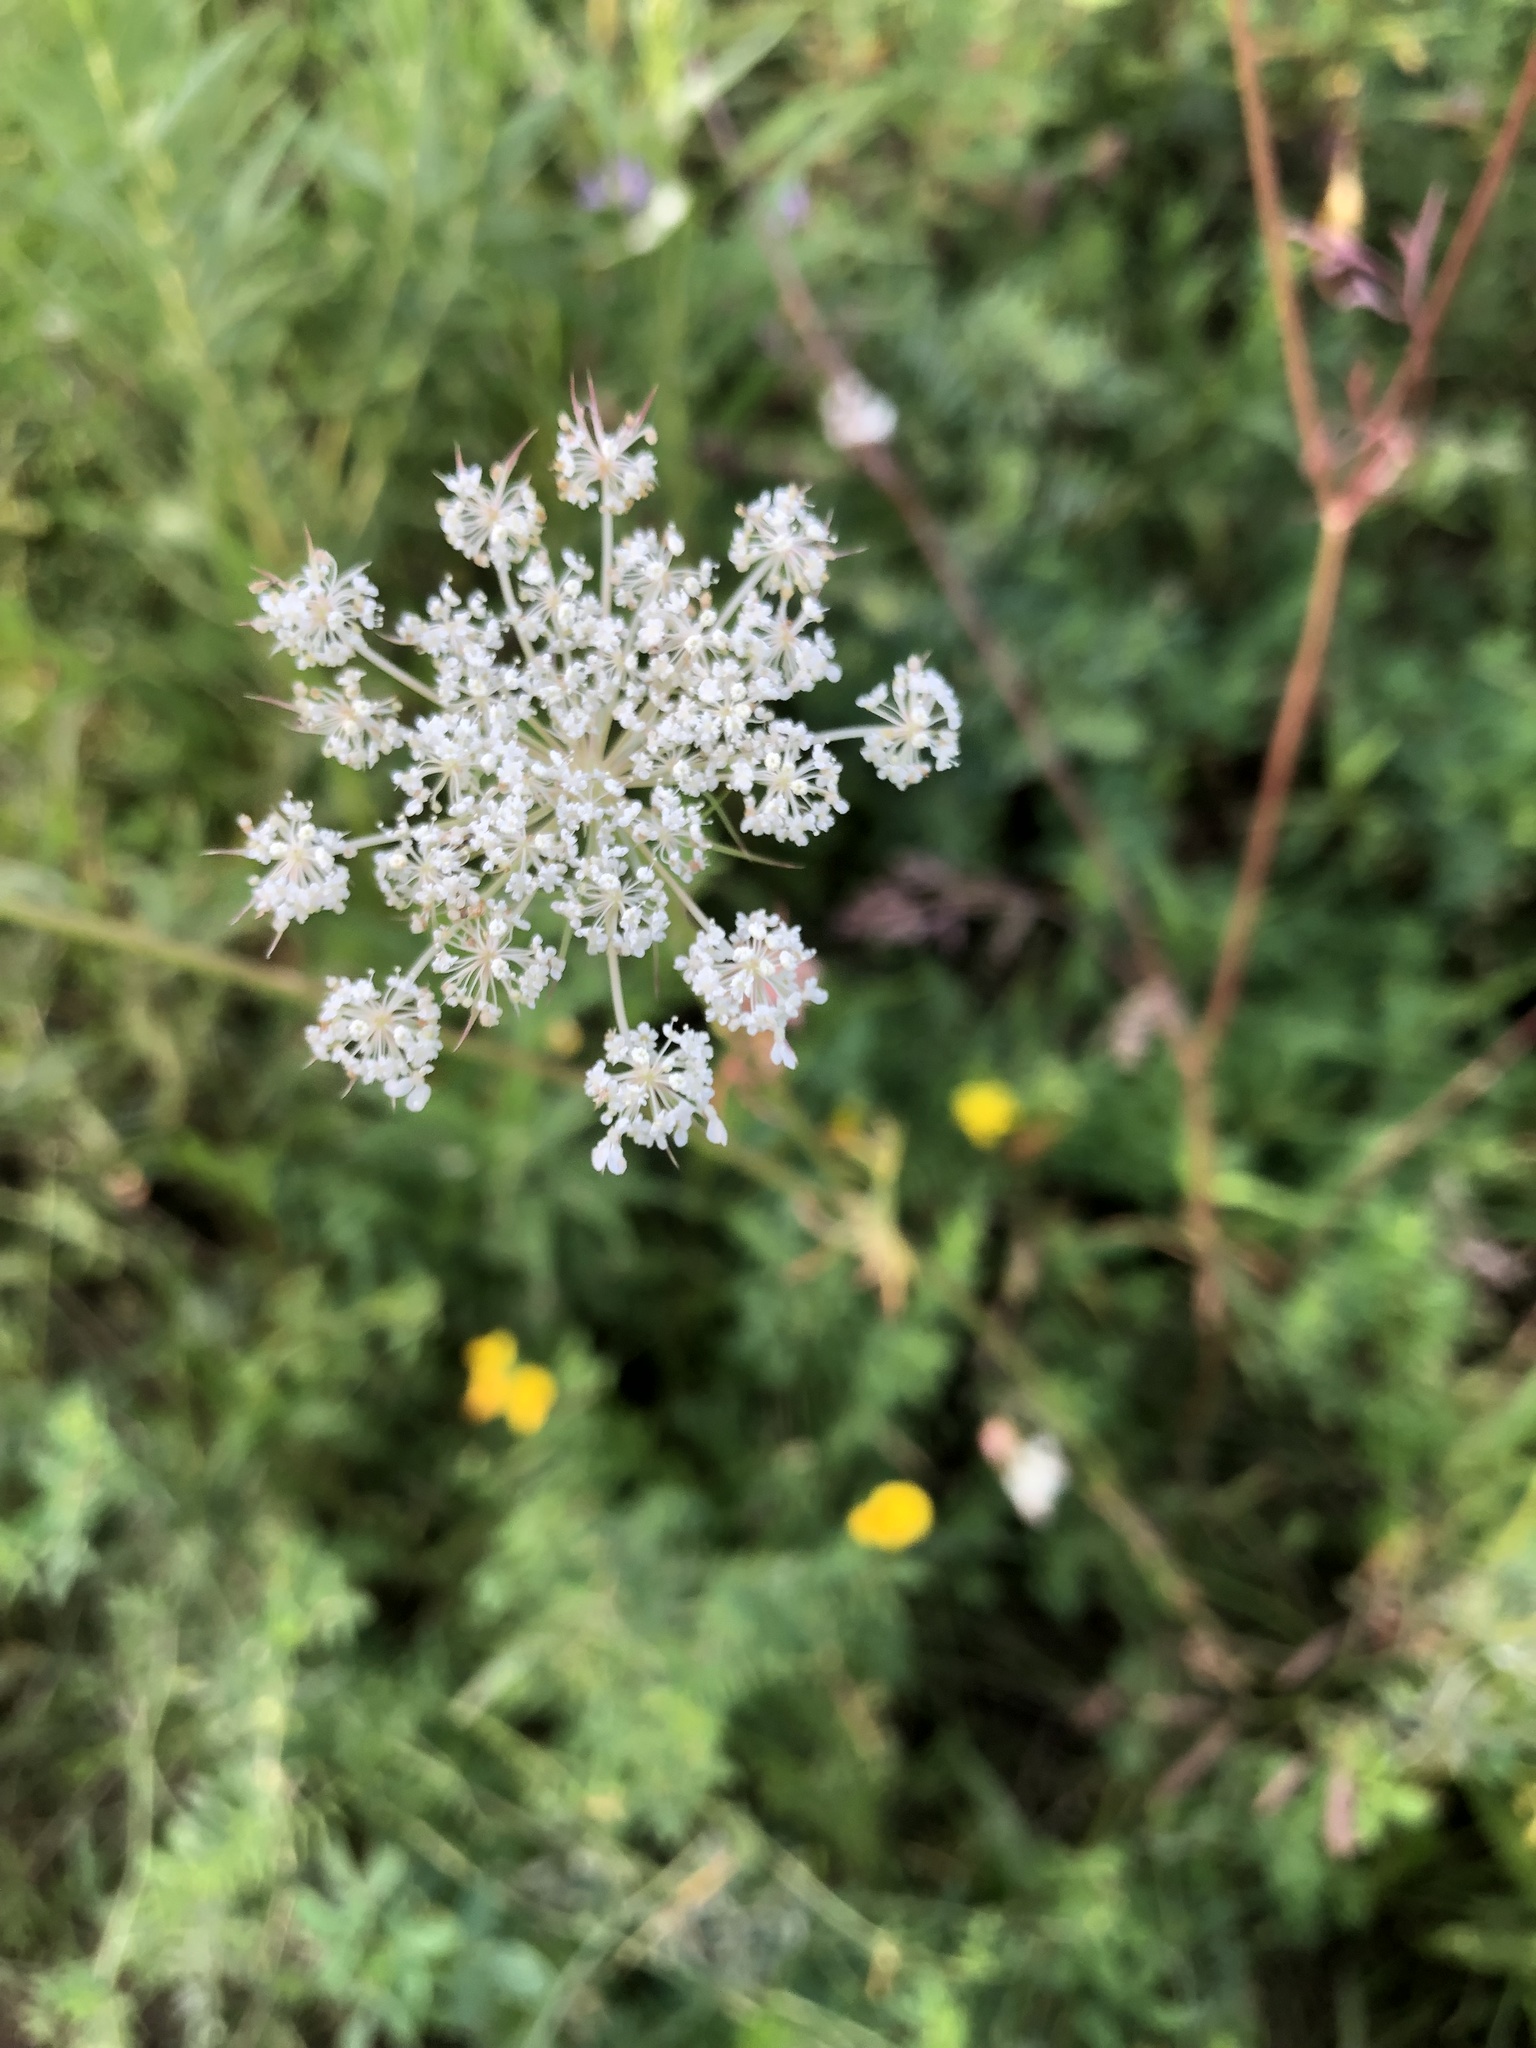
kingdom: Plantae
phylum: Tracheophyta
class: Magnoliopsida
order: Apiales
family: Apiaceae
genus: Daucus
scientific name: Daucus carota
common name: Wild carrot
